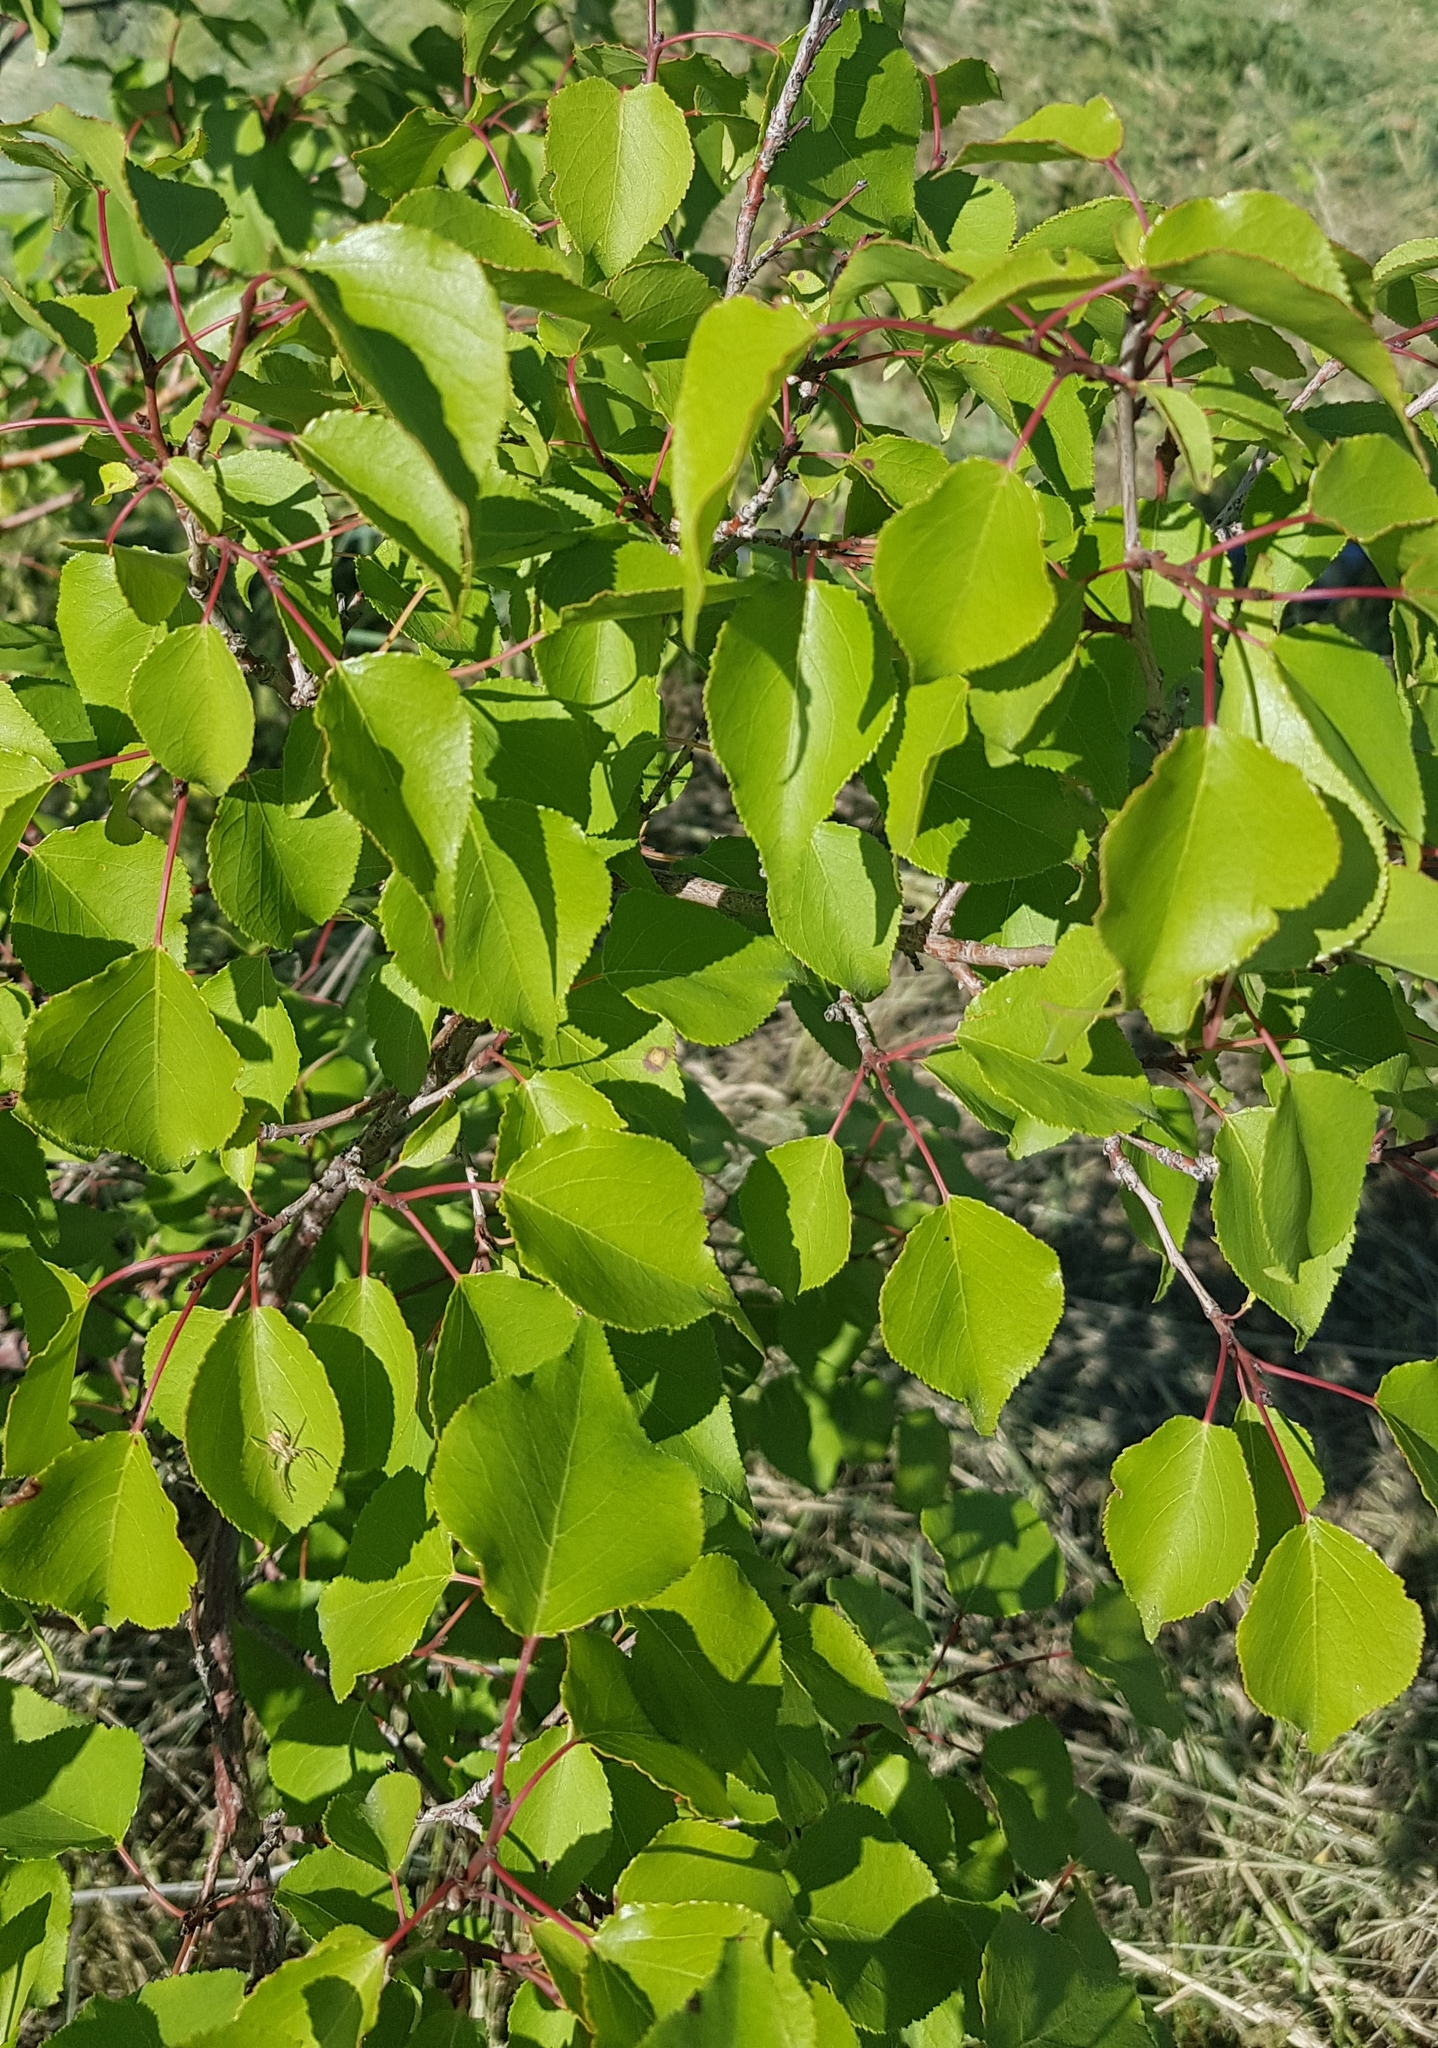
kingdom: Plantae
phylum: Tracheophyta
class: Magnoliopsida
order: Rosales
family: Rosaceae
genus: Prunus
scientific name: Prunus armeniaca
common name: Apricot
